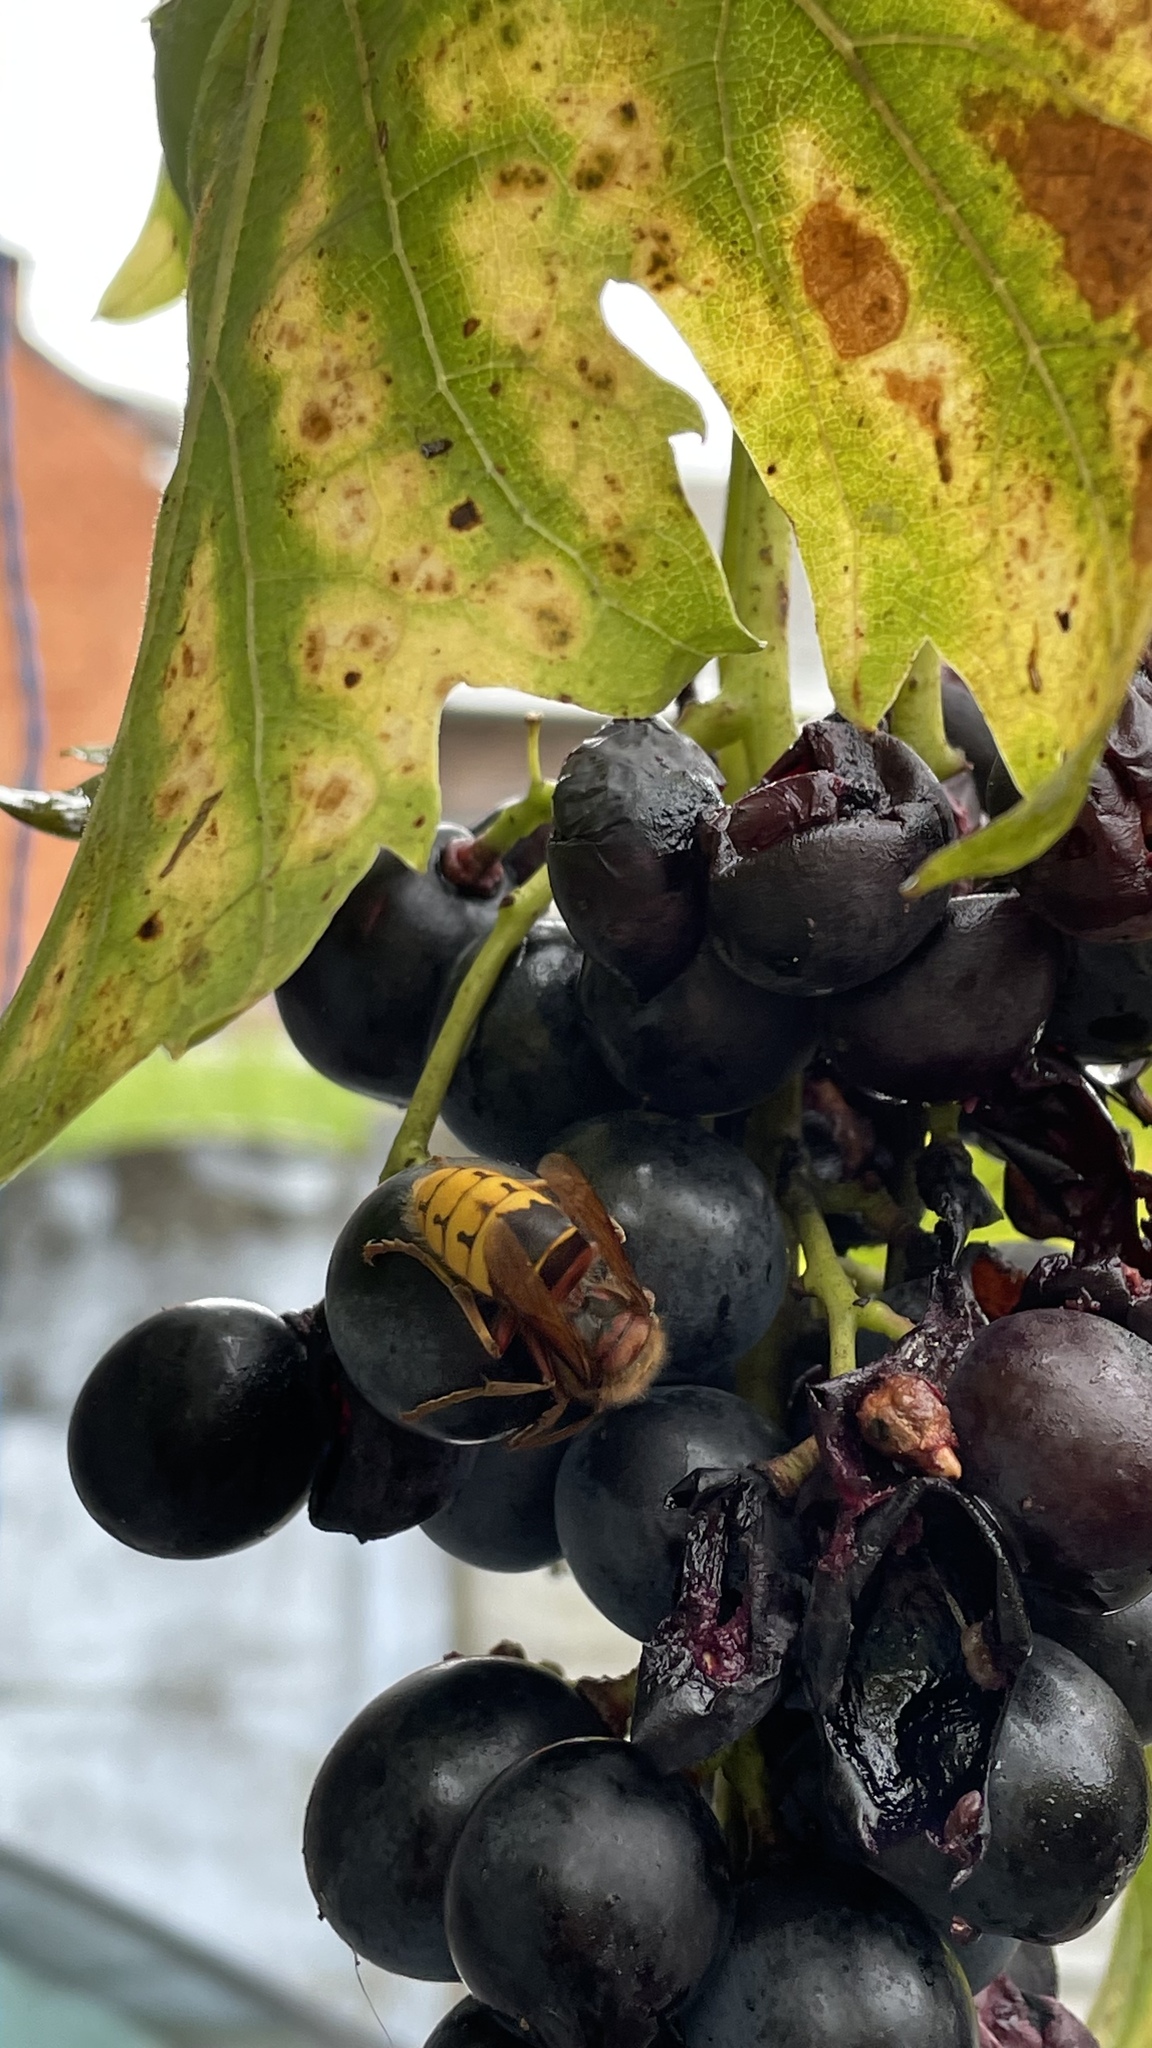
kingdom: Animalia
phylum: Arthropoda
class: Insecta
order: Hymenoptera
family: Vespidae
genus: Vespa
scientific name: Vespa crabro
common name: Hornet
